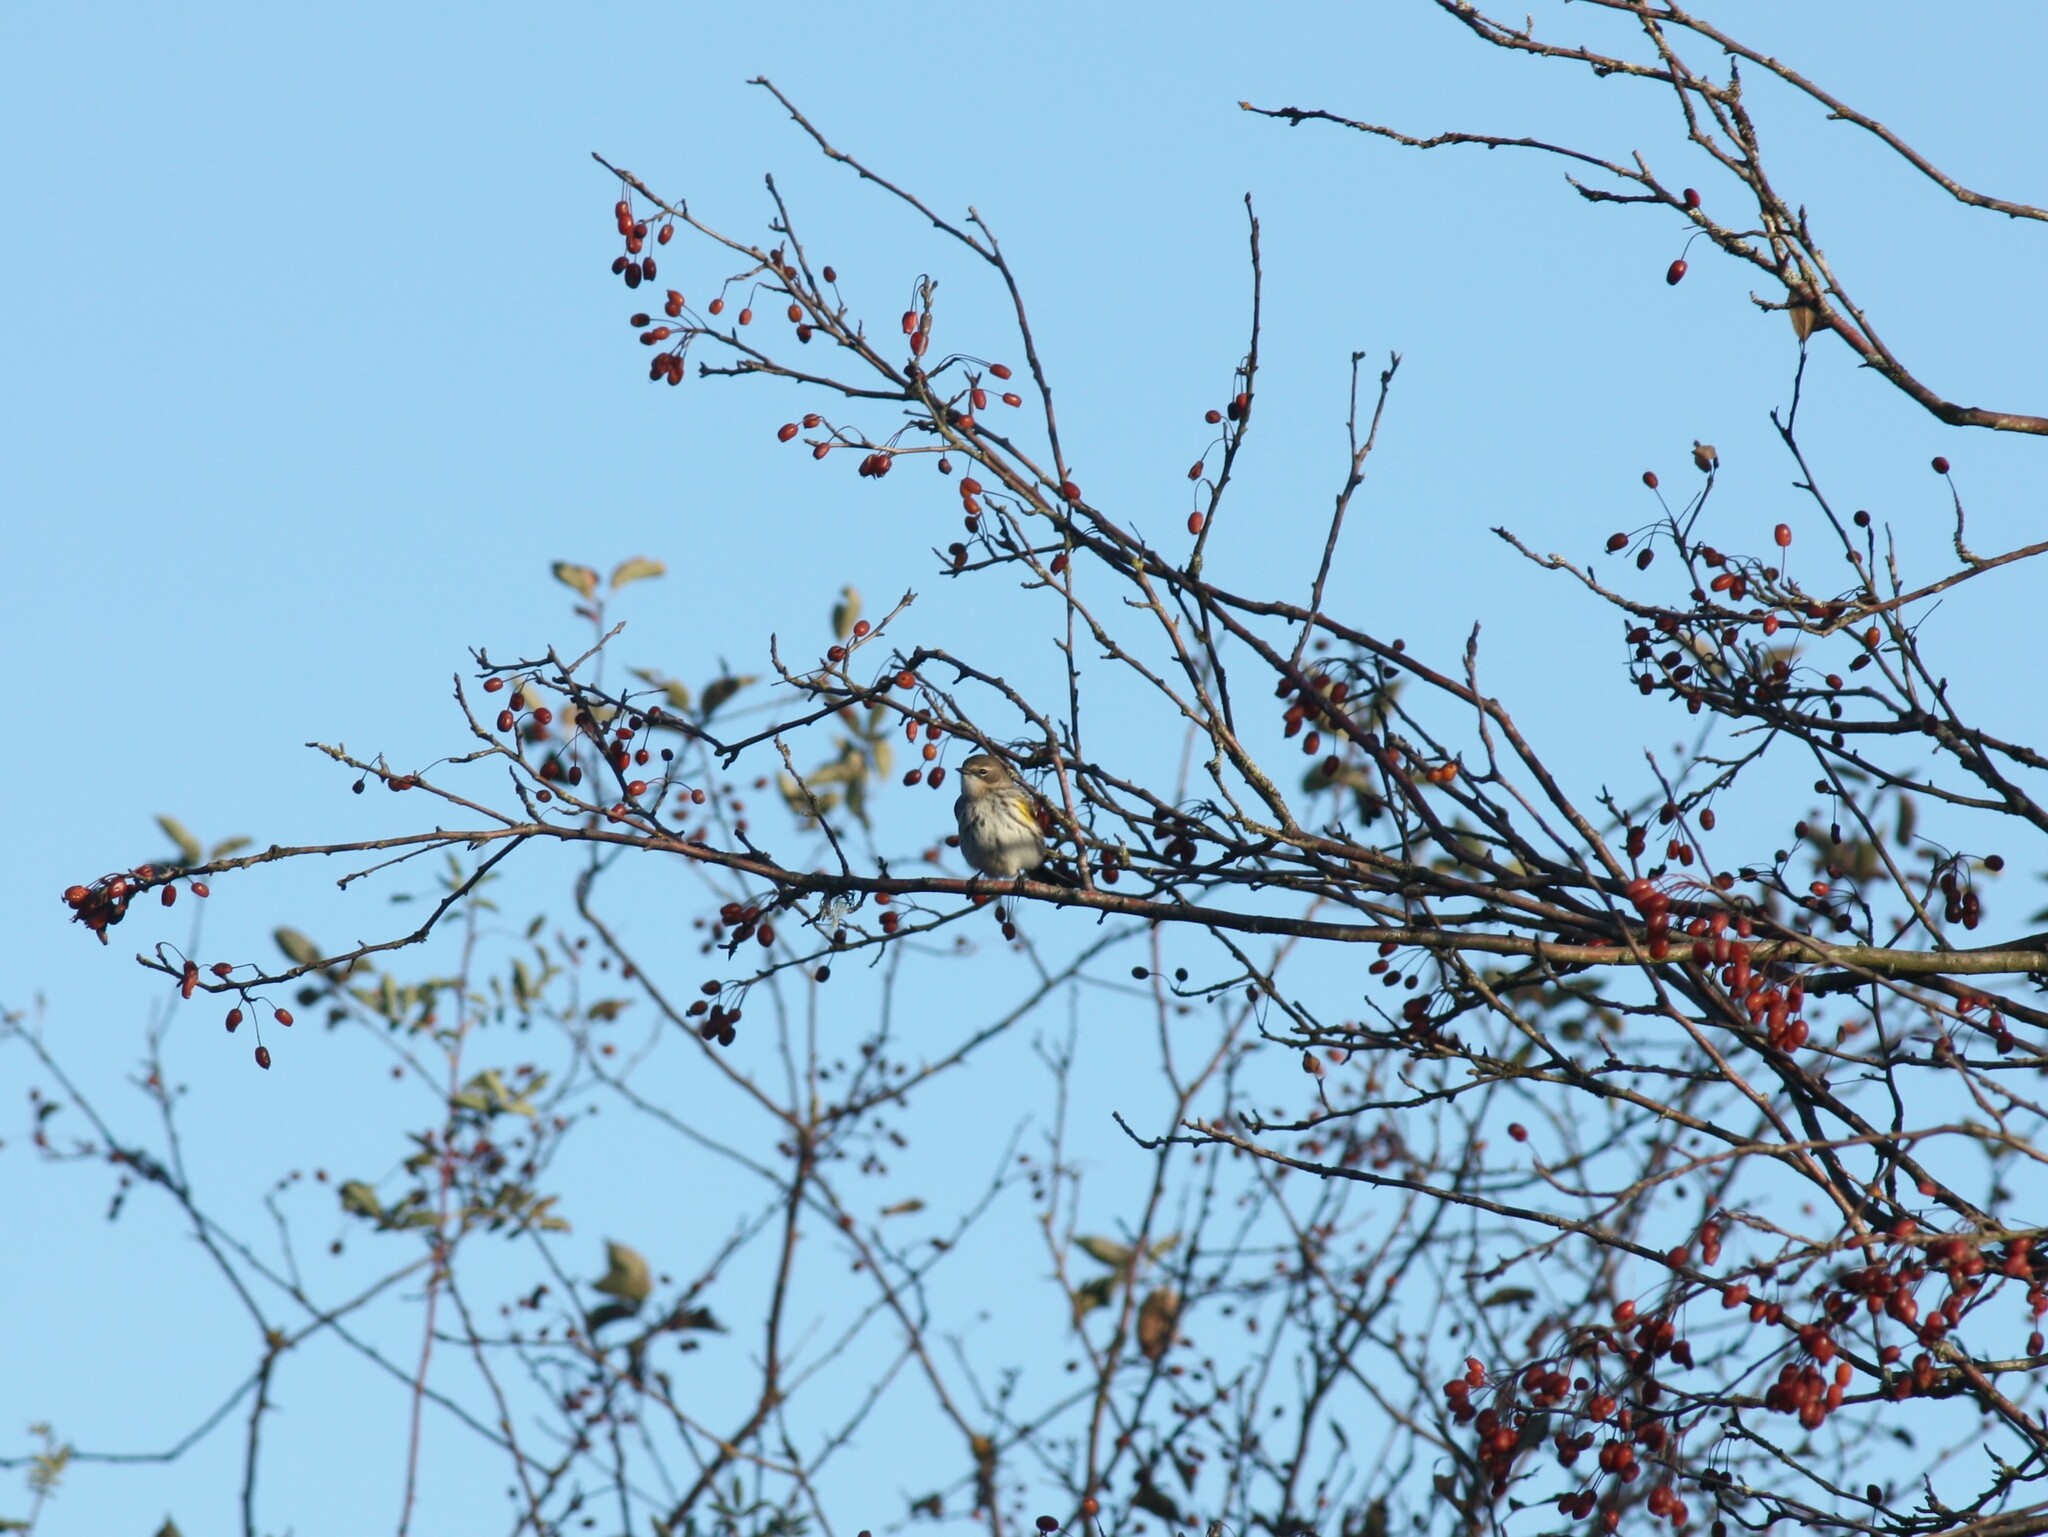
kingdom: Animalia
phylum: Chordata
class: Aves
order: Passeriformes
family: Parulidae
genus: Setophaga
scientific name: Setophaga coronata
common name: Myrtle warbler
